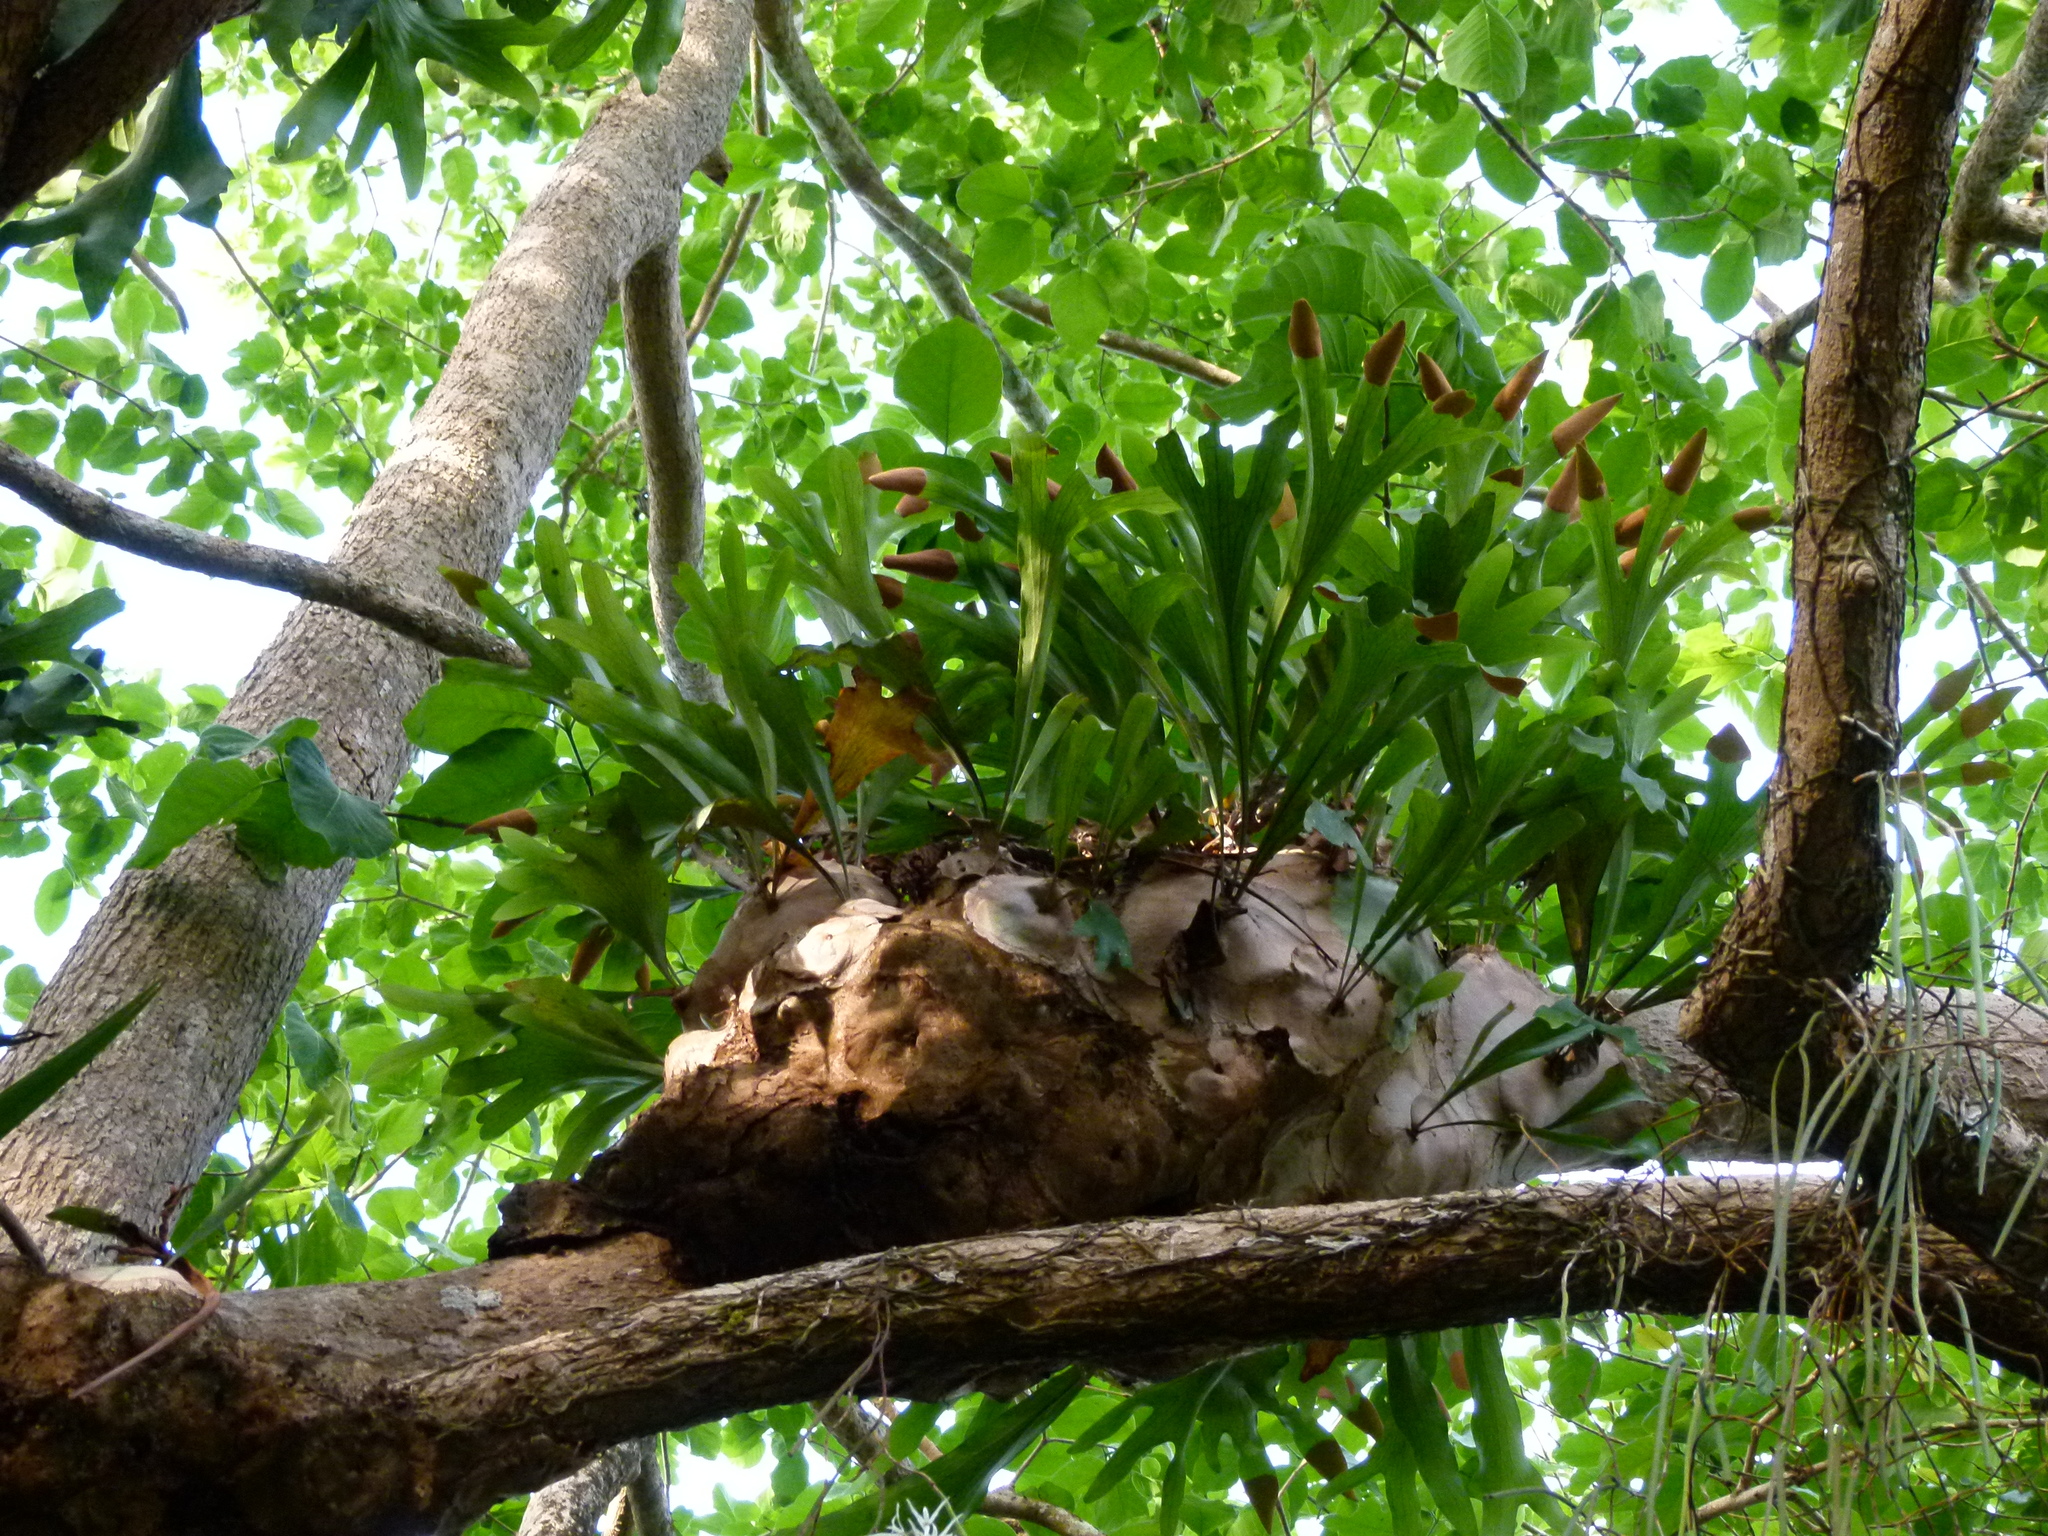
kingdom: Plantae
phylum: Tracheophyta
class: Polypodiopsida
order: Polypodiales
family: Polypodiaceae
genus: Platycerium
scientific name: Platycerium hillii
